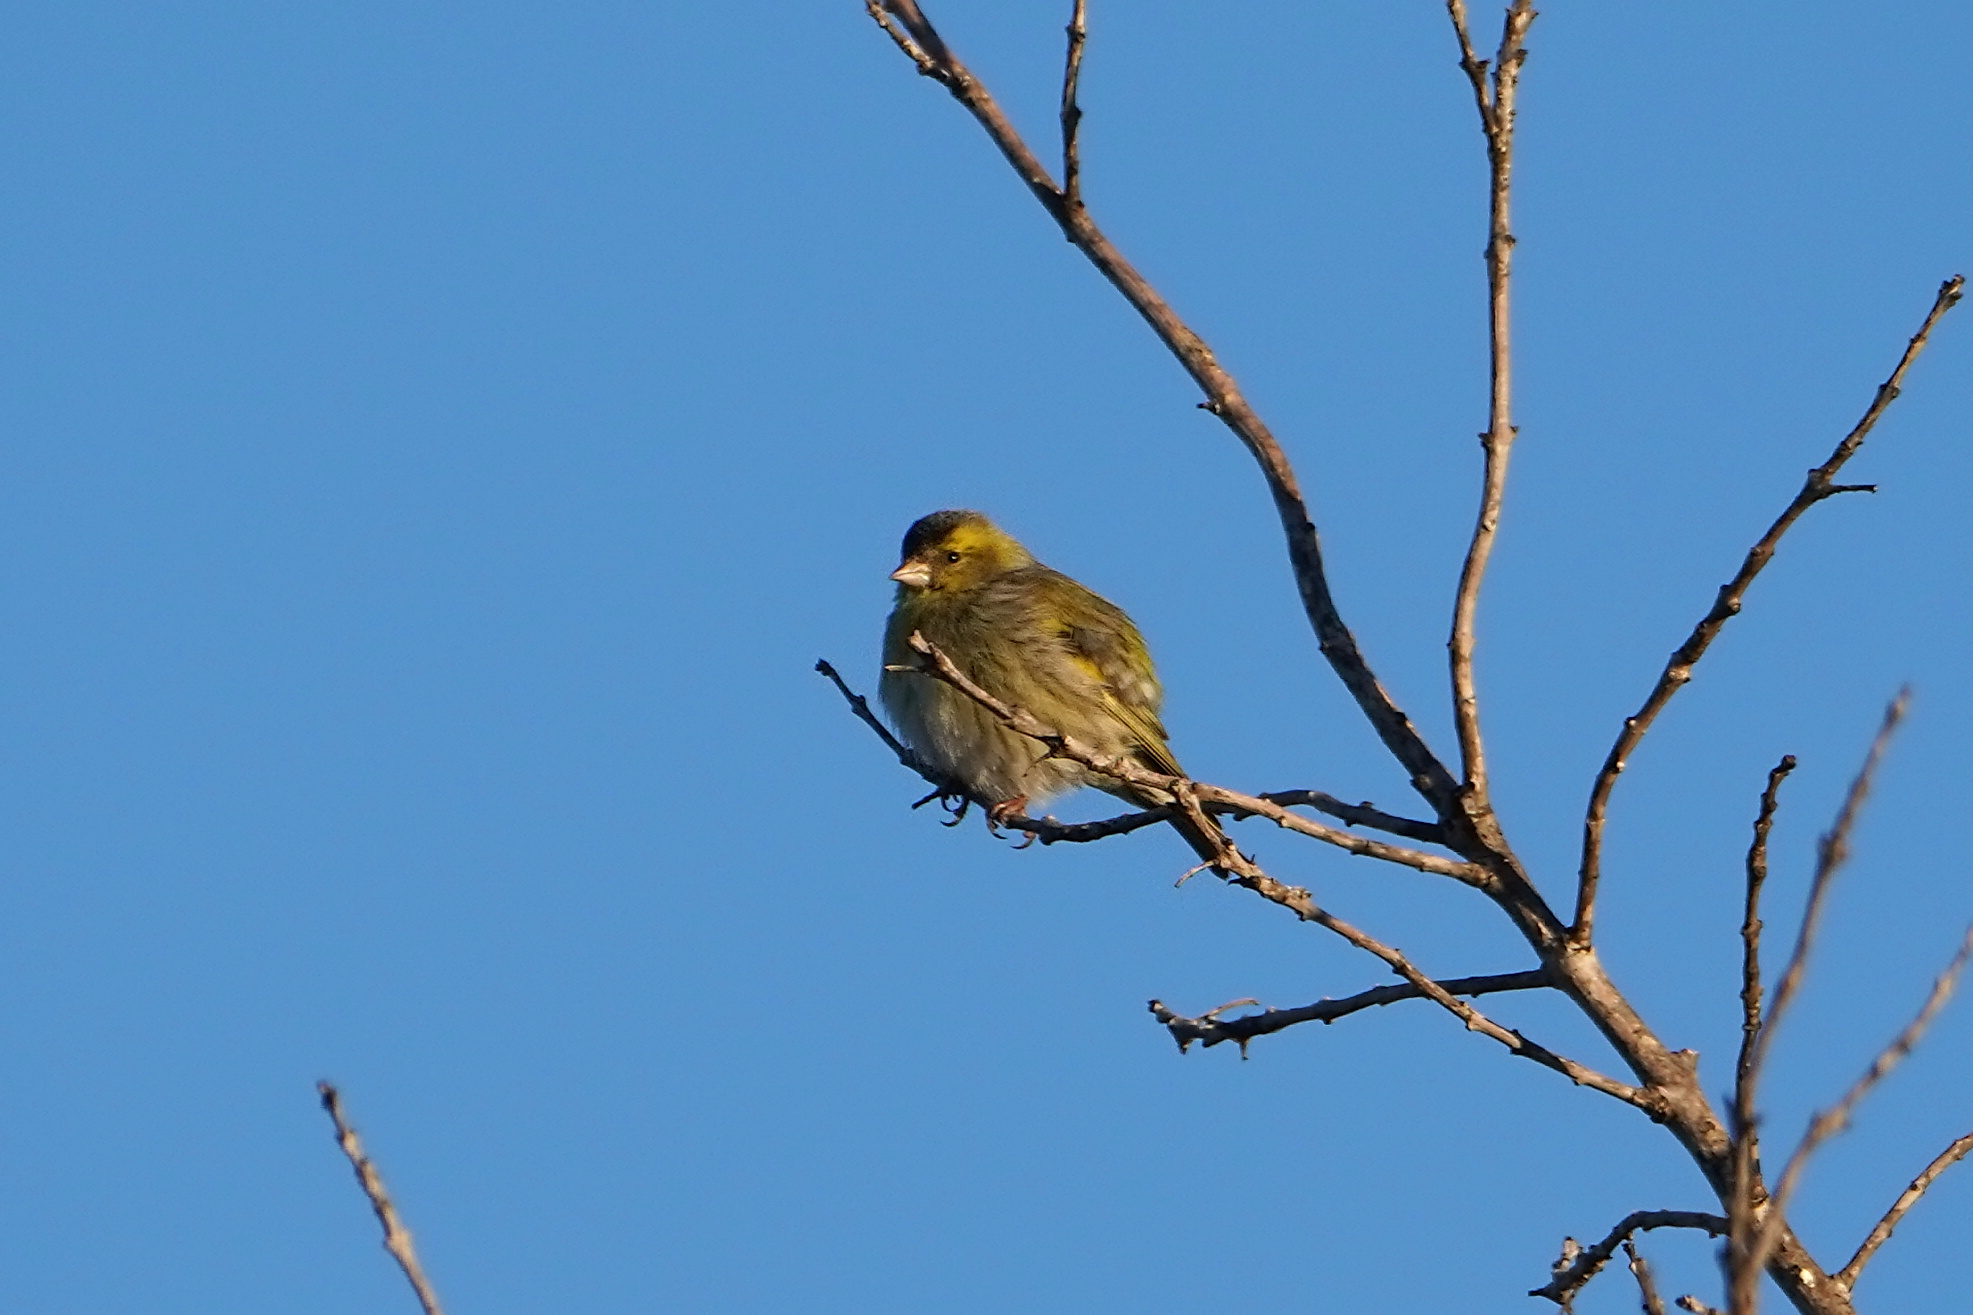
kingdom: Animalia
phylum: Chordata
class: Aves
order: Passeriformes
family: Fringillidae
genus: Spinus
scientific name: Spinus spinus
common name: Eurasian siskin
